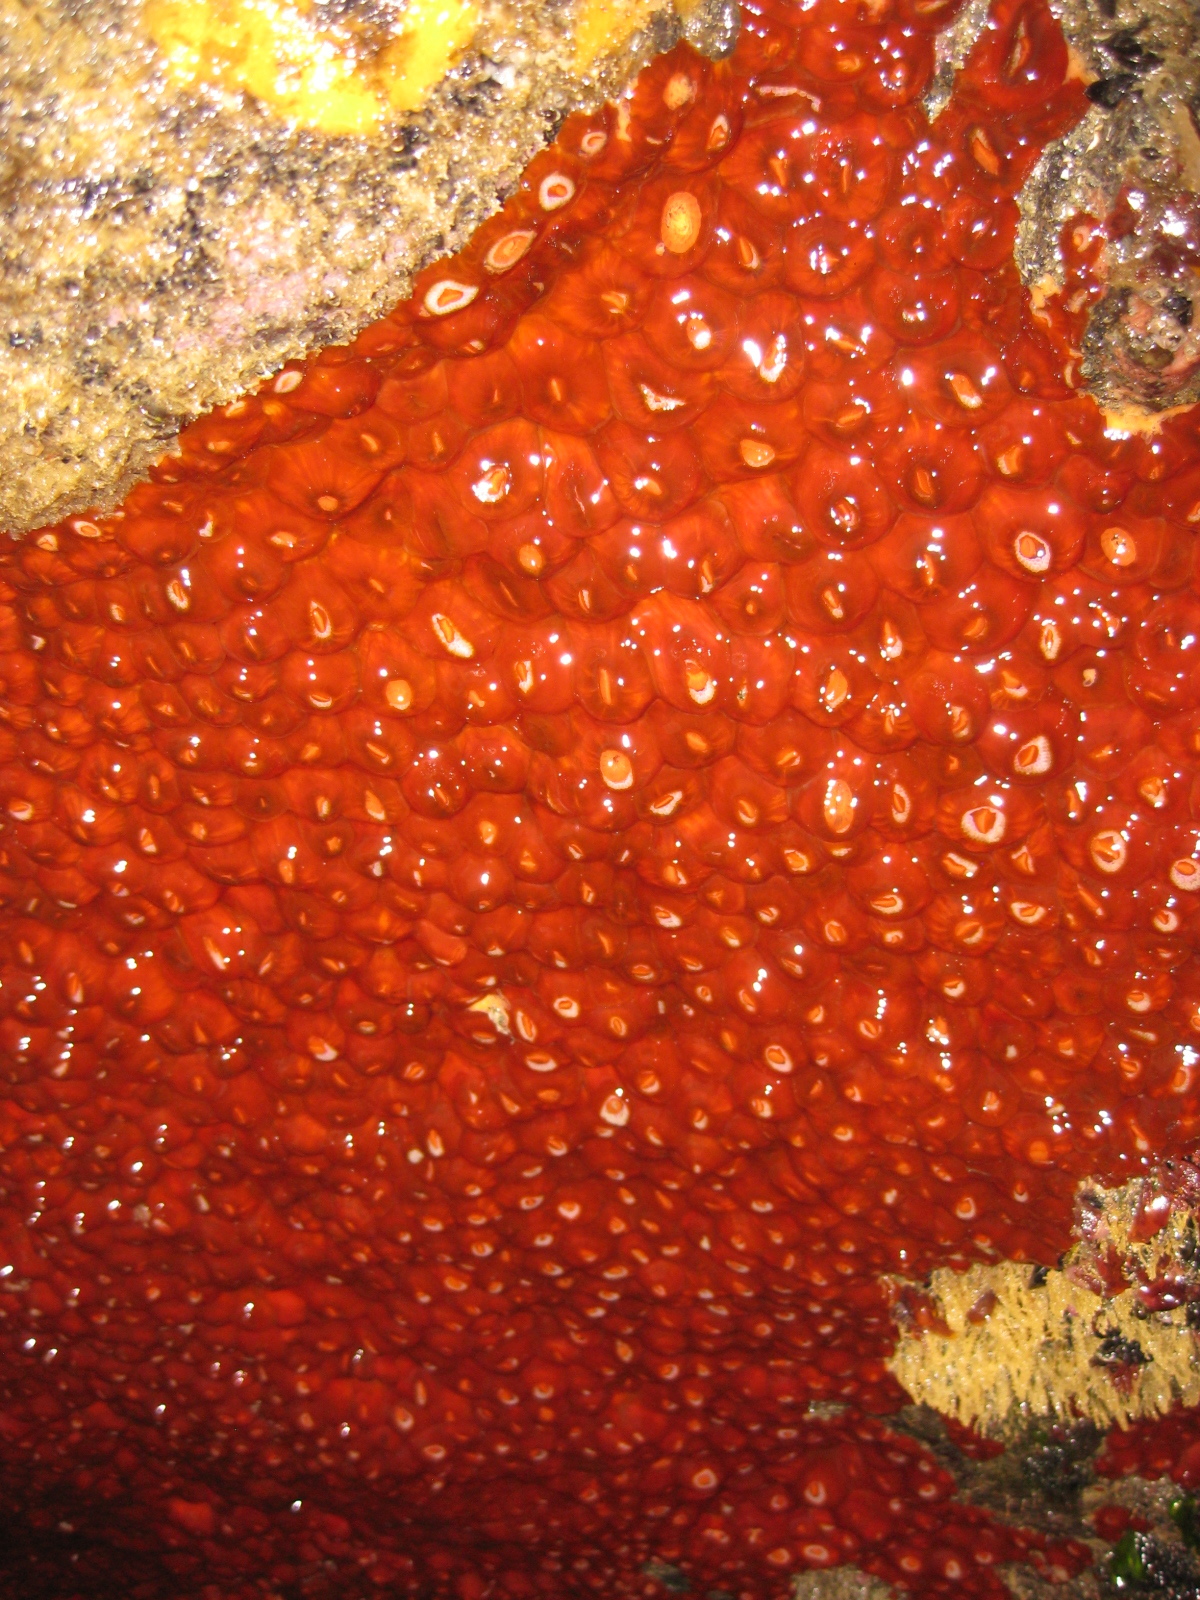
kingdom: Animalia
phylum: Cnidaria
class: Anthozoa
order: Corallimorpharia
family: Corallimorphidae
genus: Corynactis
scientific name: Corynactis australis
